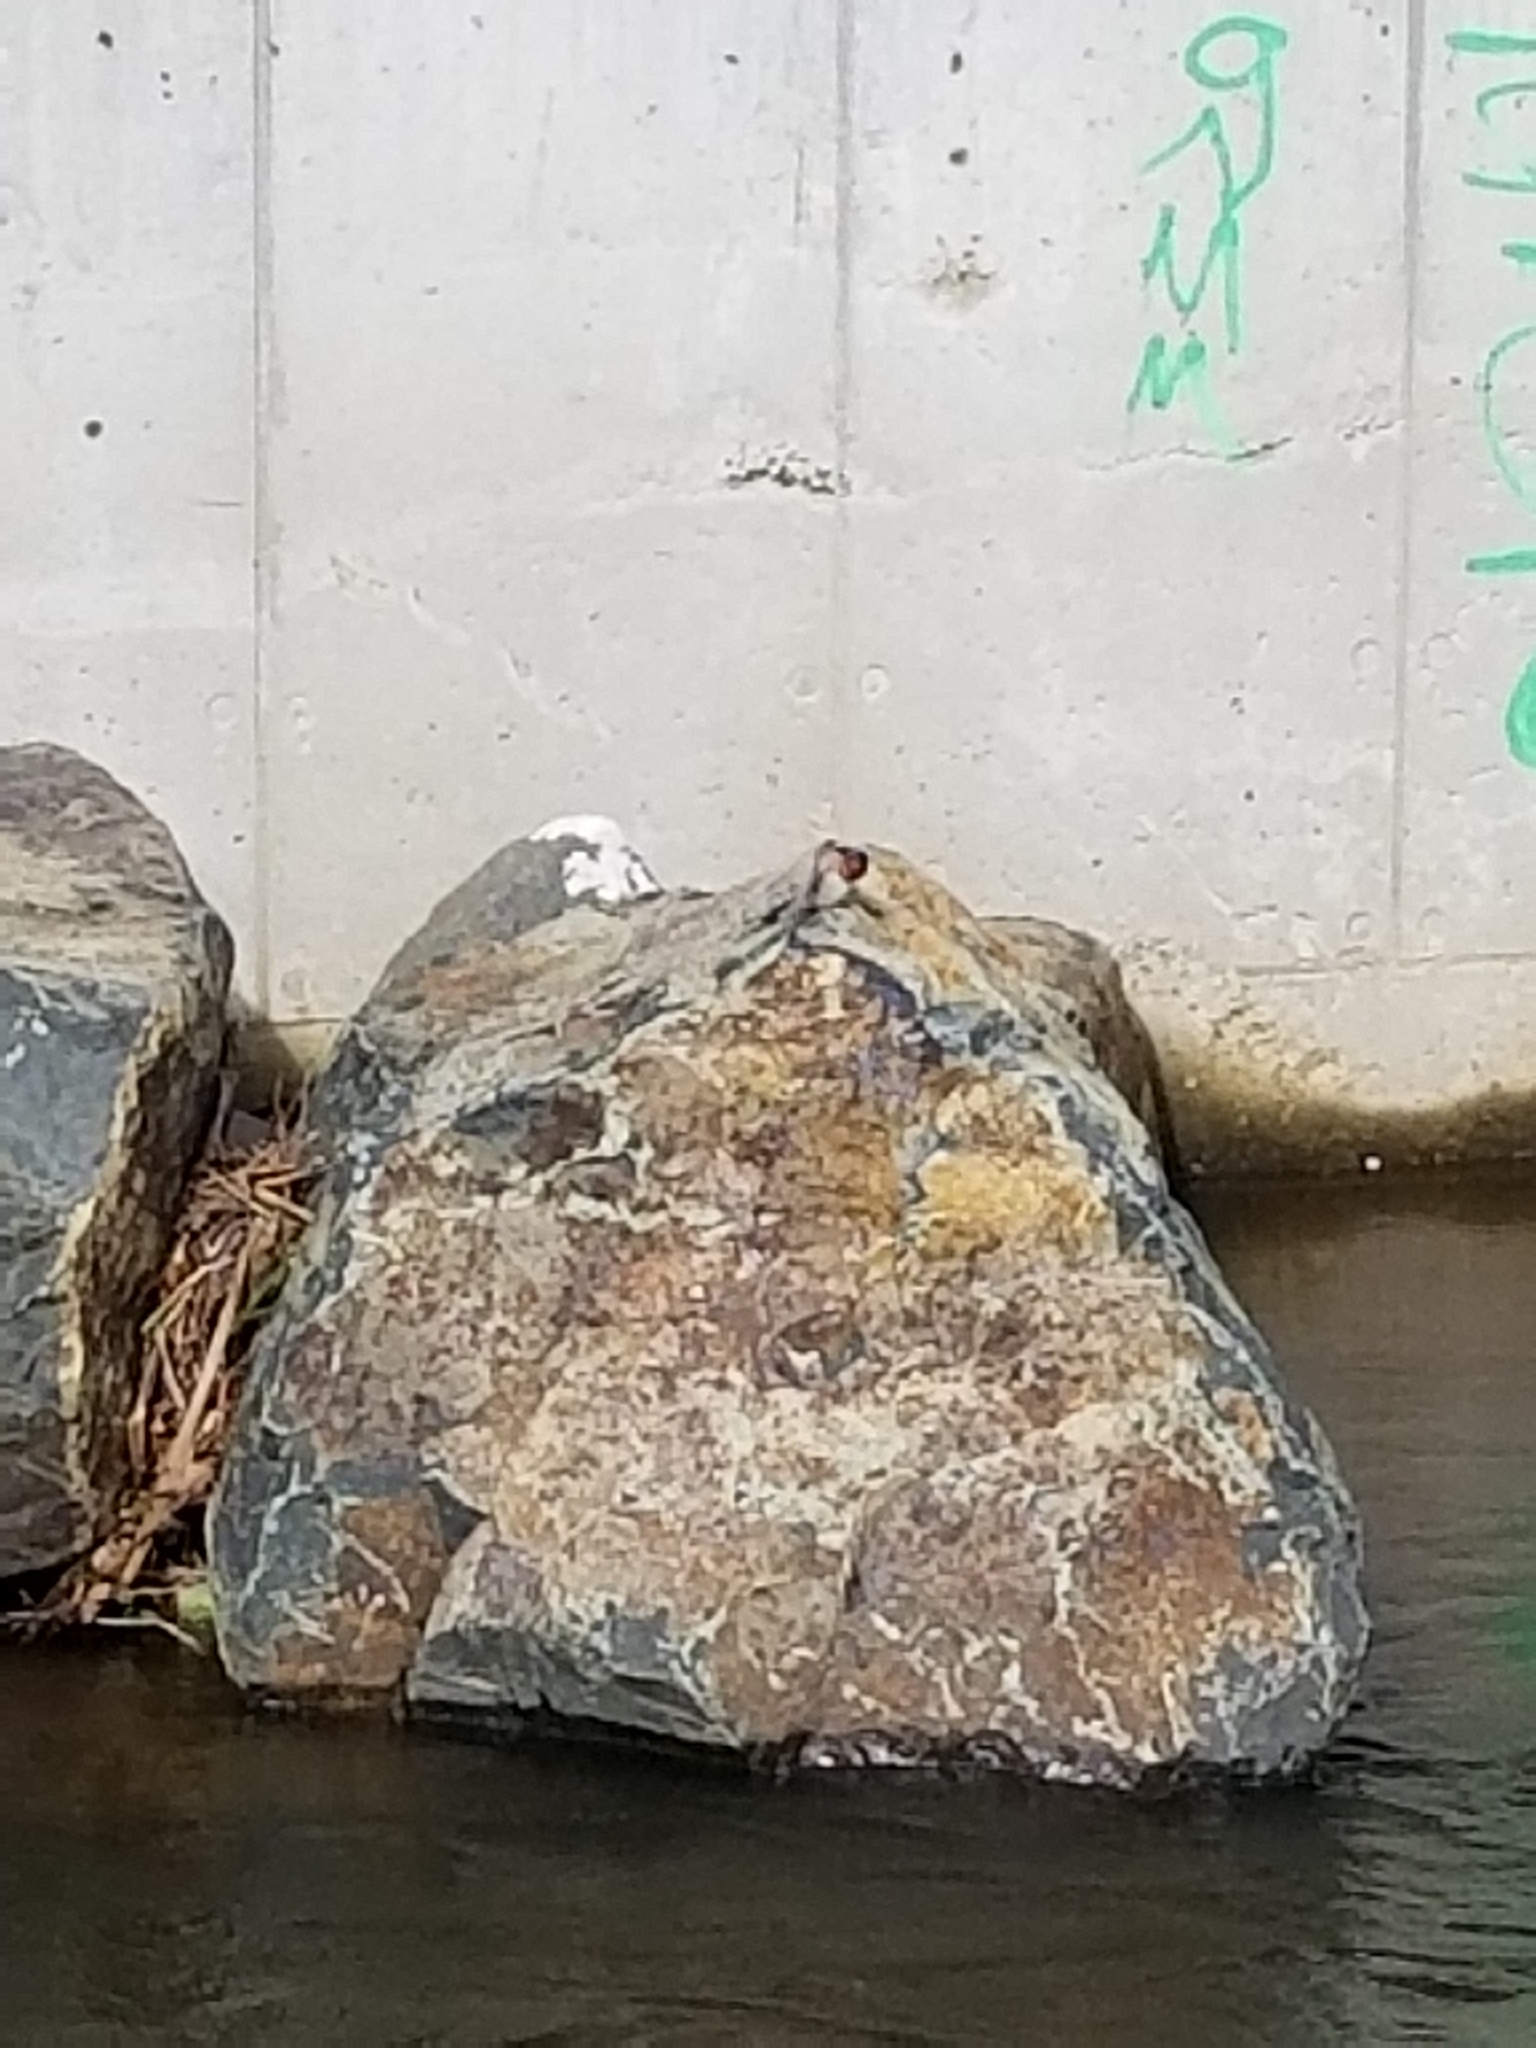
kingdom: Animalia
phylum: Chordata
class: Aves
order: Passeriformes
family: Hirundinidae
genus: Hirundo
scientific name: Hirundo neoxena
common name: Welcome swallow
